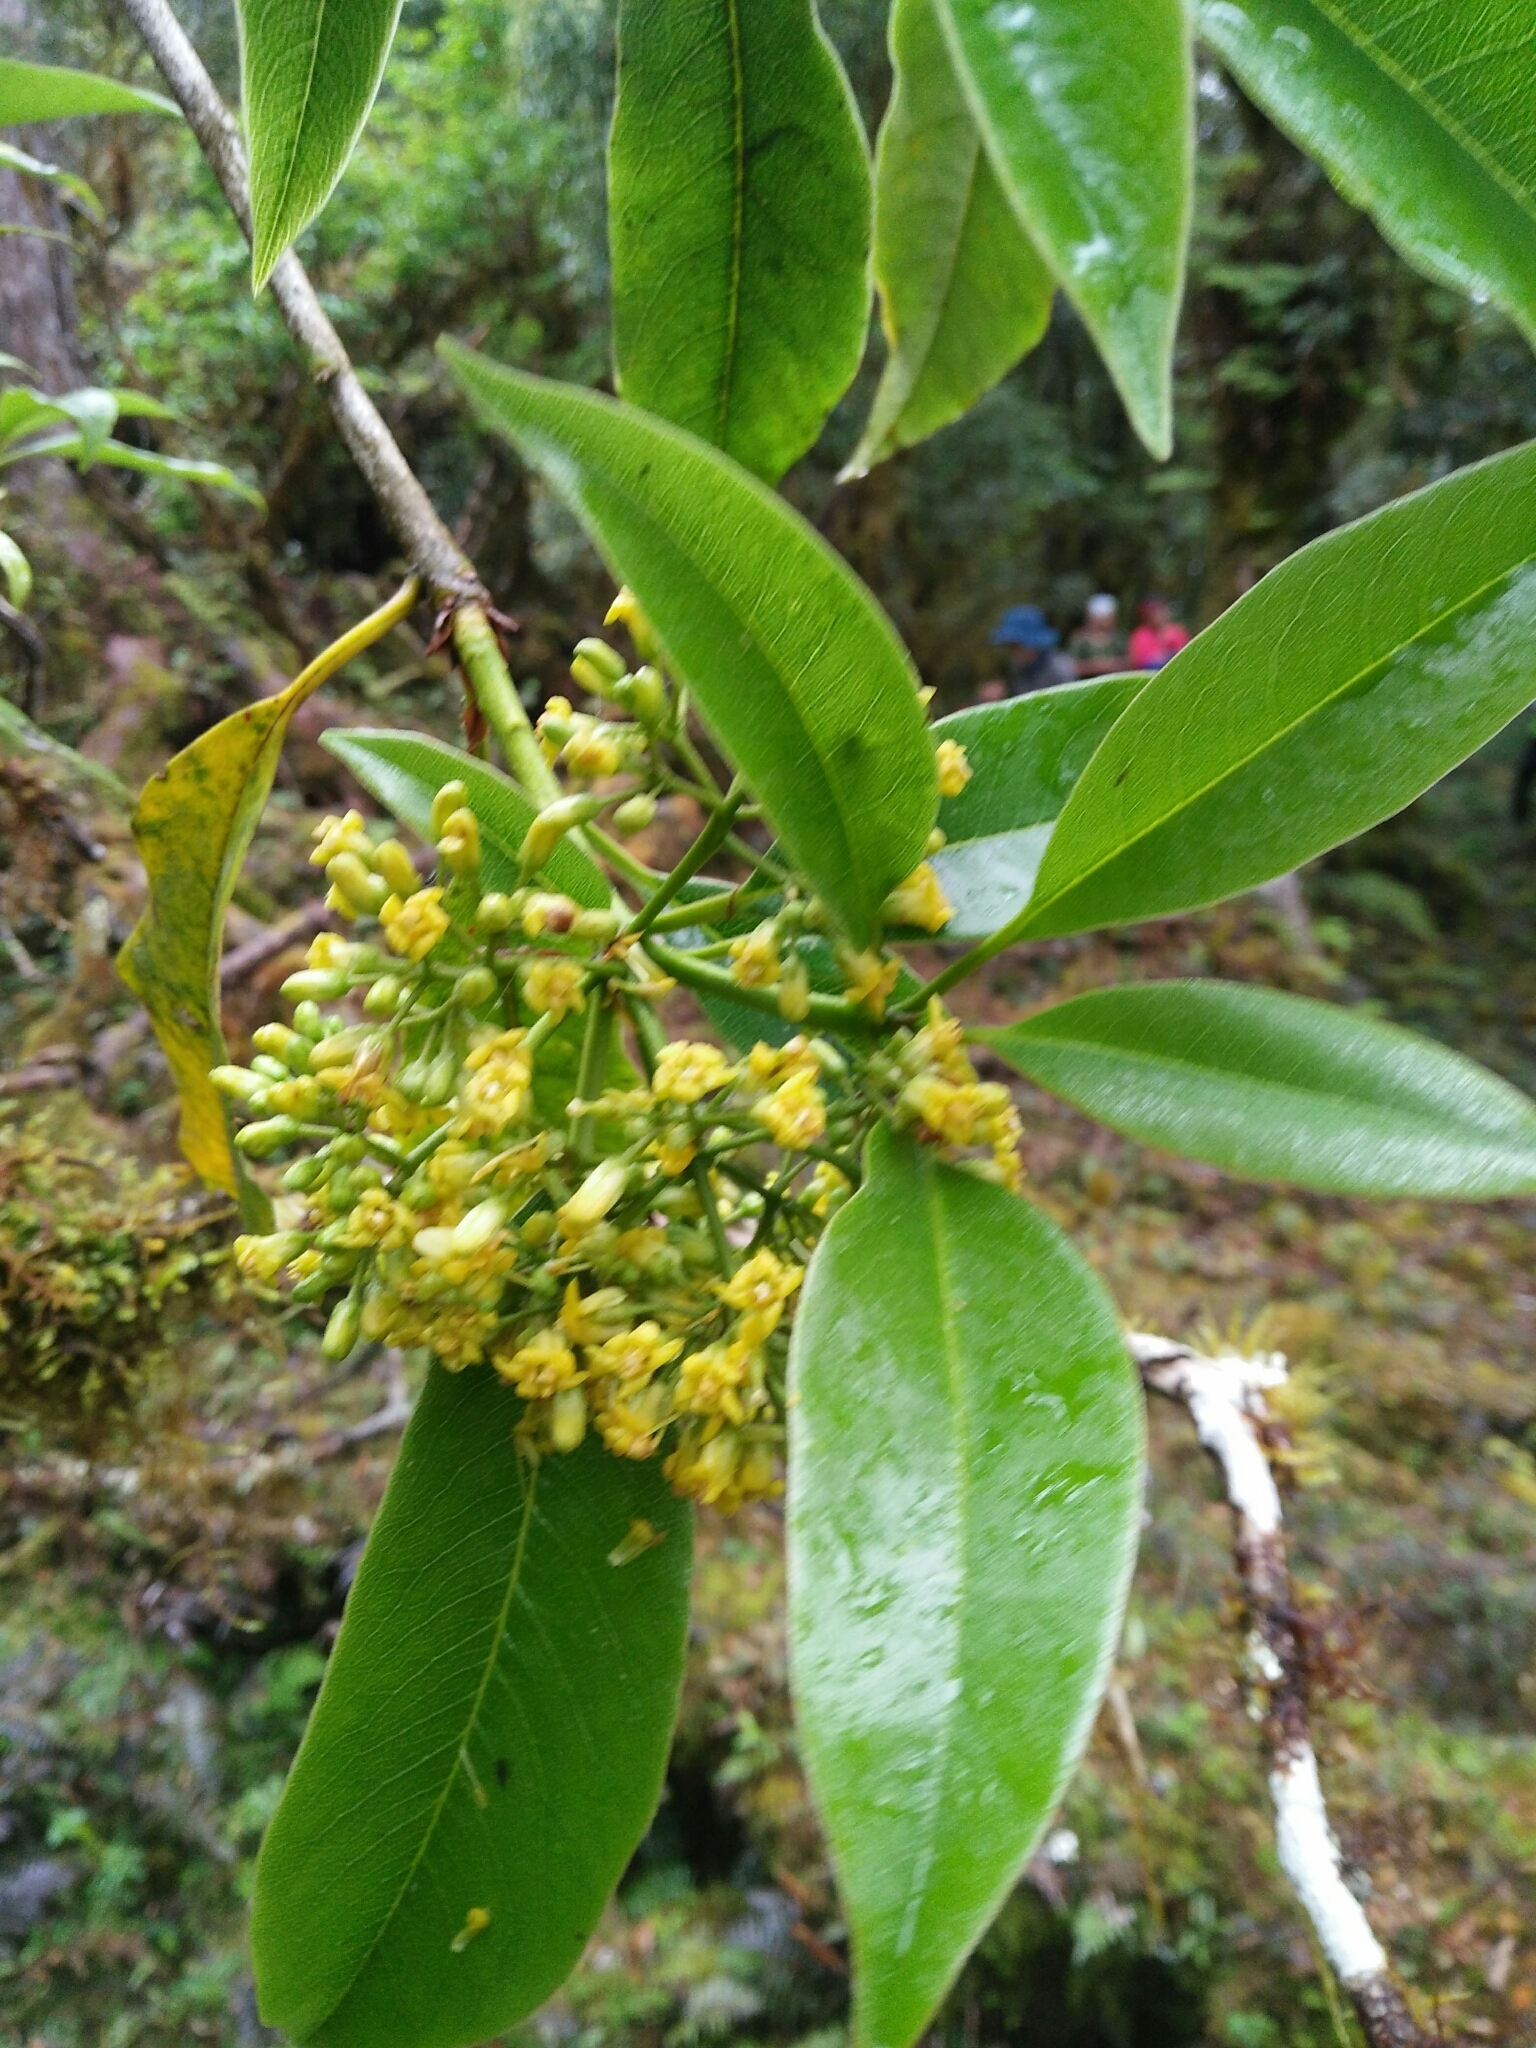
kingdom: Plantae
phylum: Tracheophyta
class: Magnoliopsida
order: Apiales
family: Pittosporaceae
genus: Pittosporum
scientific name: Pittosporum daphniphylloides
